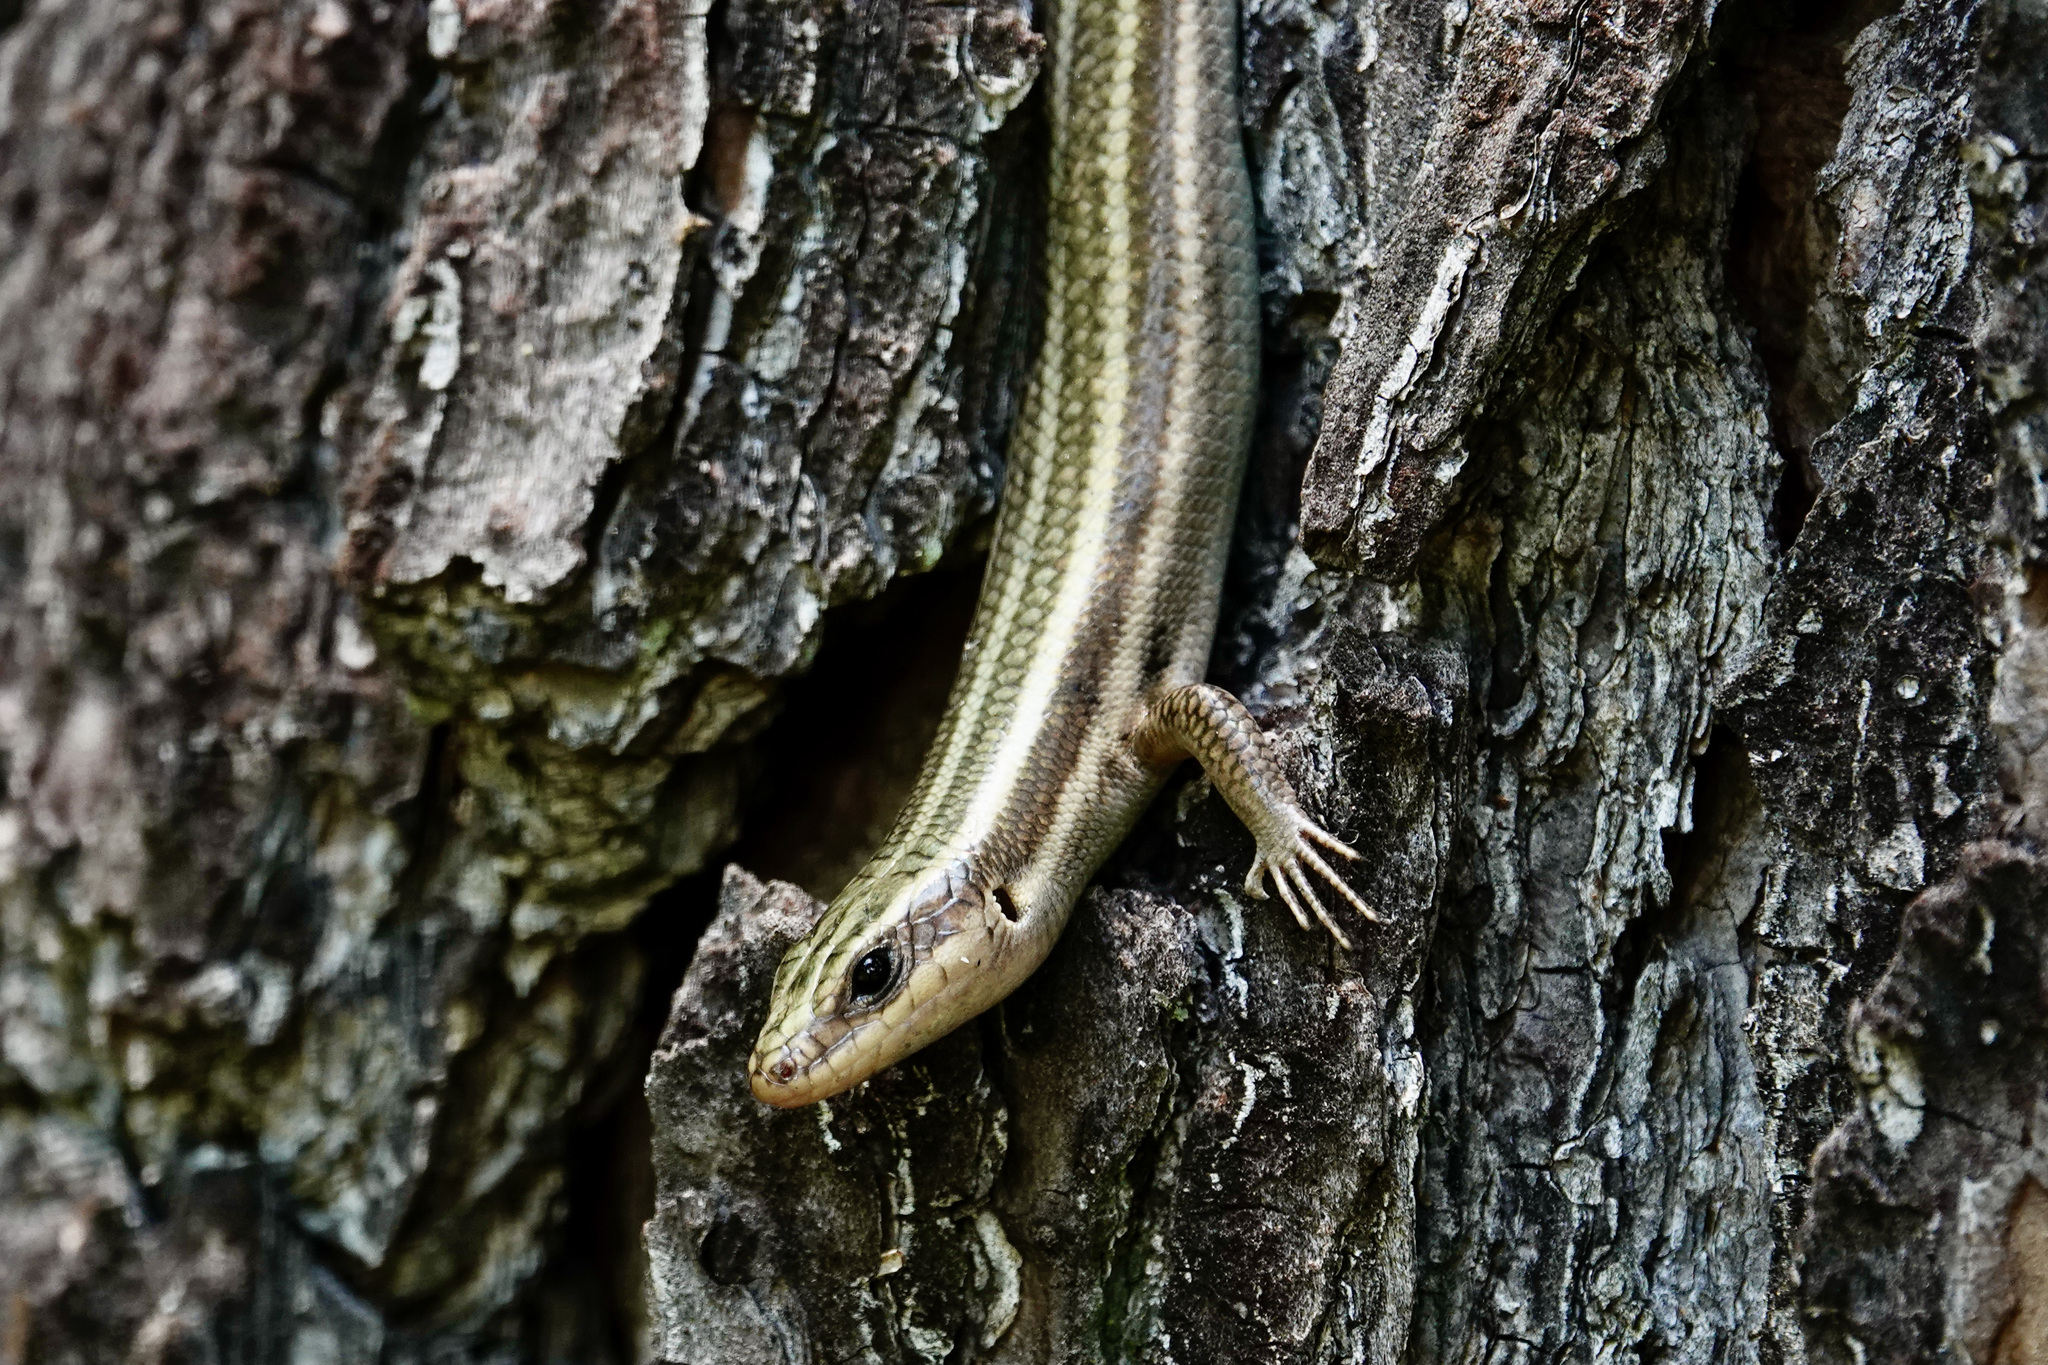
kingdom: Animalia
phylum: Chordata
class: Squamata
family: Scincidae
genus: Plestiodon
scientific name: Plestiodon fasciatus
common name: Five-lined skink
